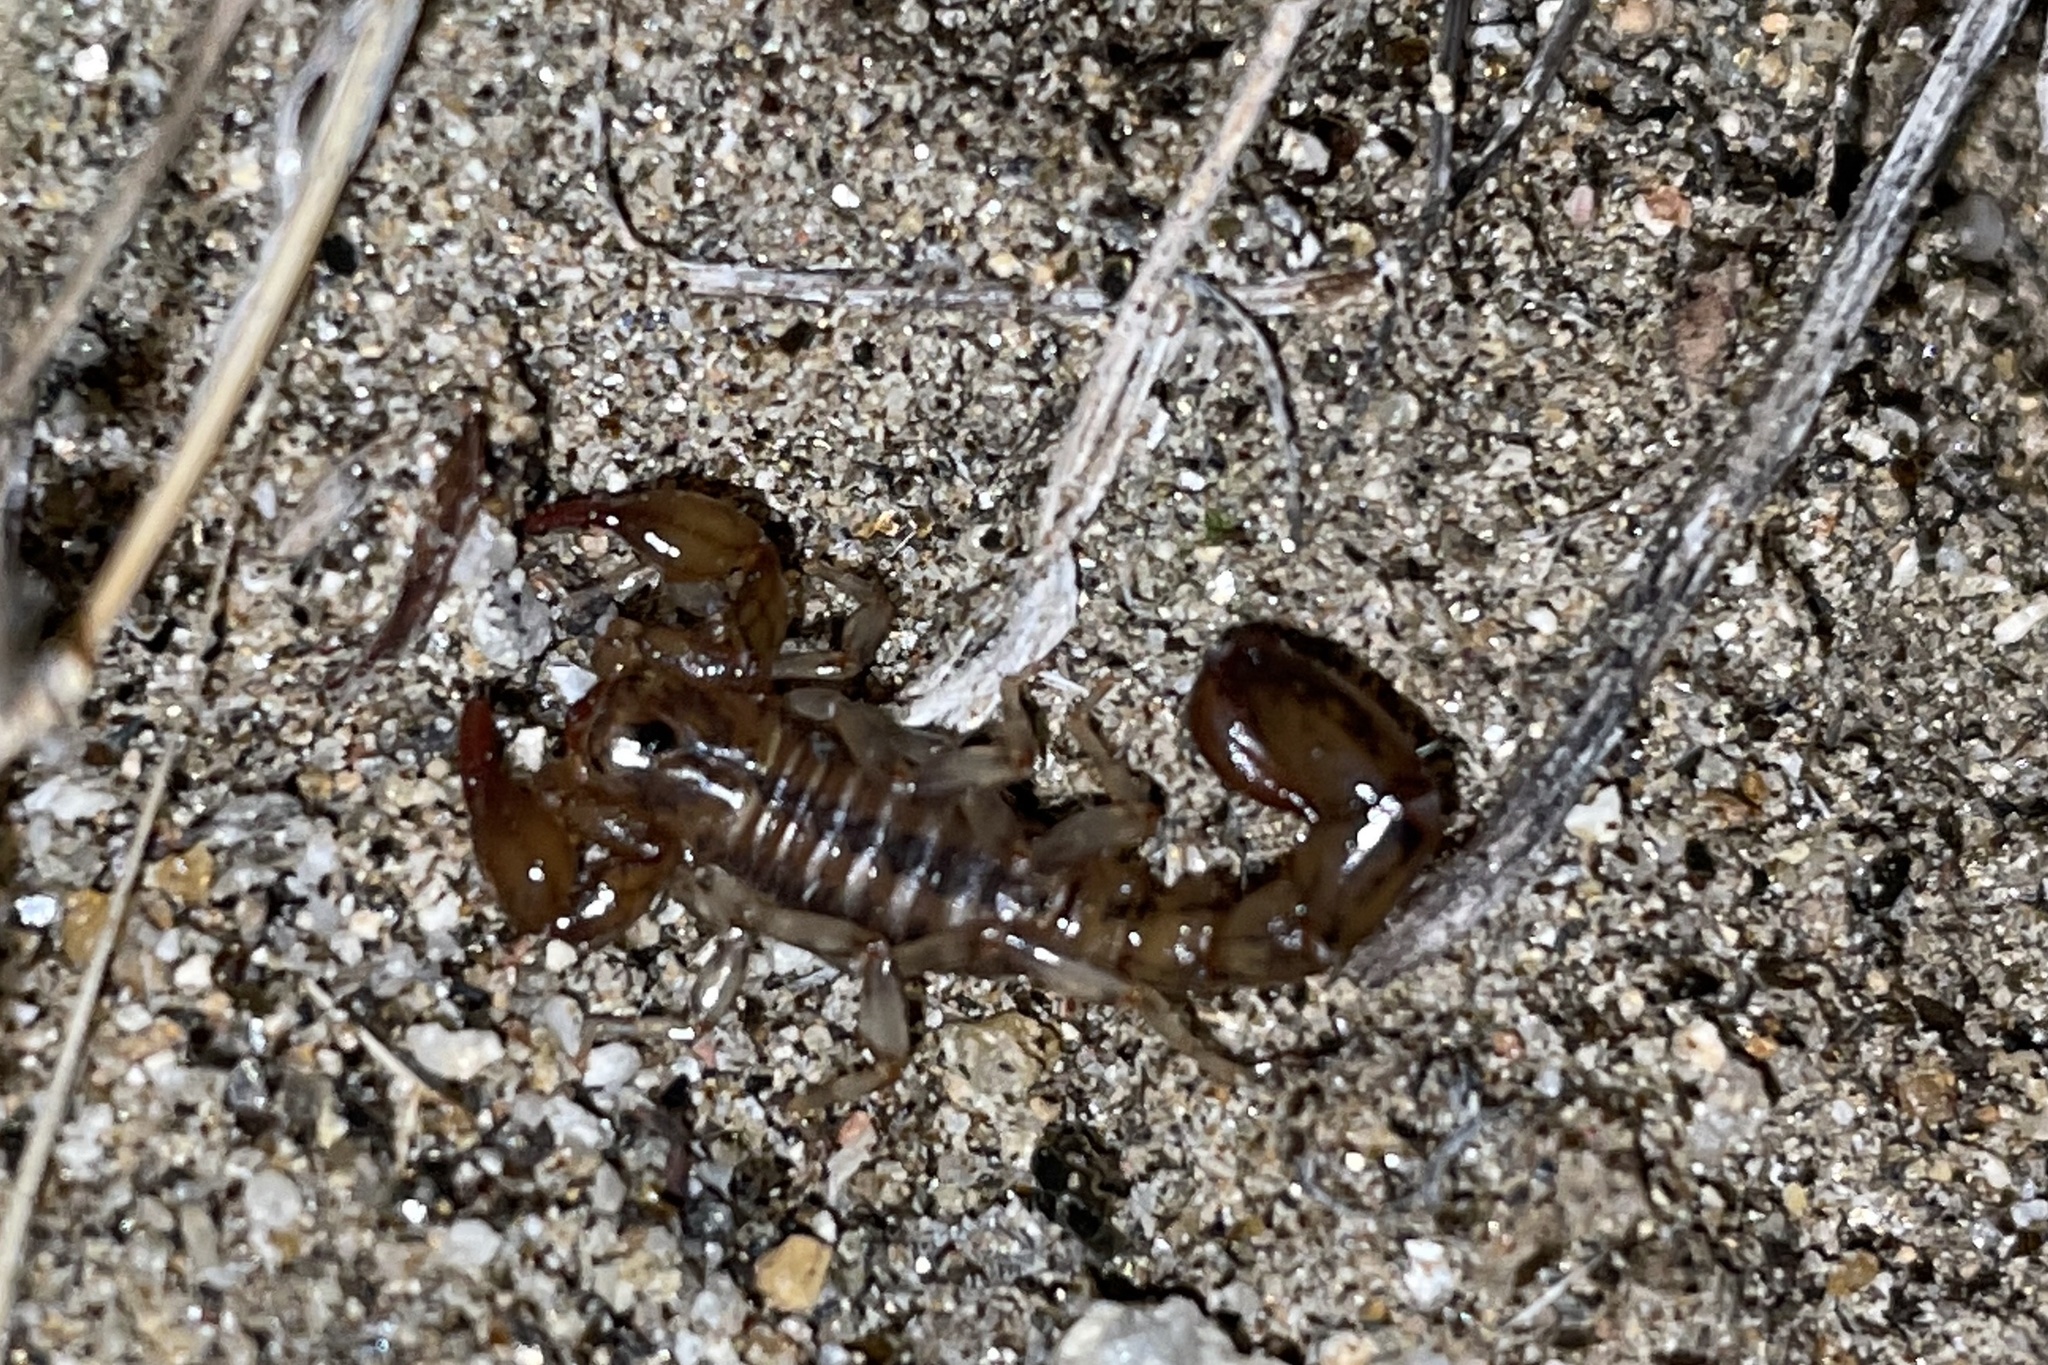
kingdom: Animalia
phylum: Arthropoda
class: Arachnida
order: Scorpiones
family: Superstitioniidae
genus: Superstitionia
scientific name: Superstitionia donensis
